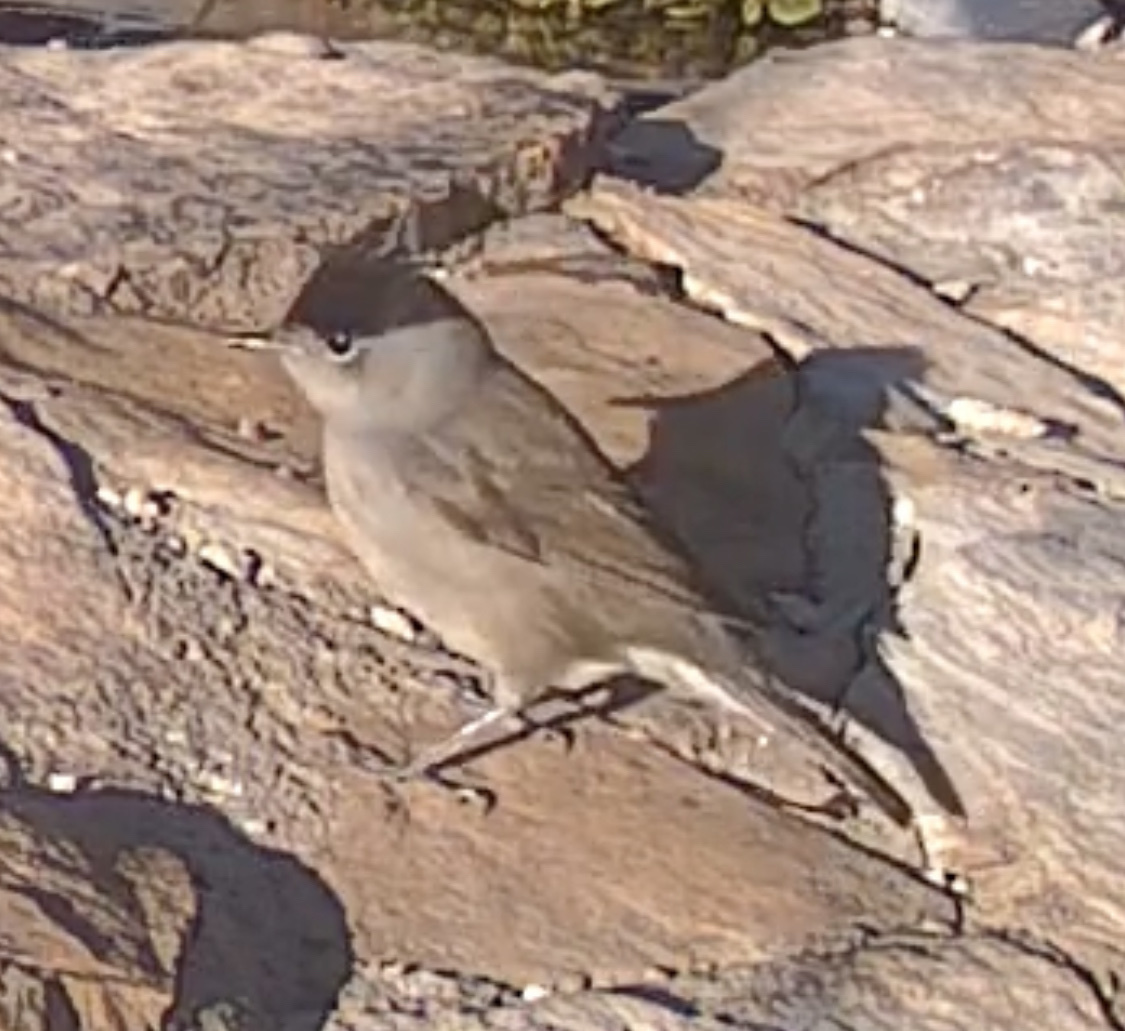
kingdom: Animalia
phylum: Chordata
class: Aves
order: Passeriformes
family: Sylviidae
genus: Sylvia
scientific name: Sylvia atricapilla
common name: Eurasian blackcap
